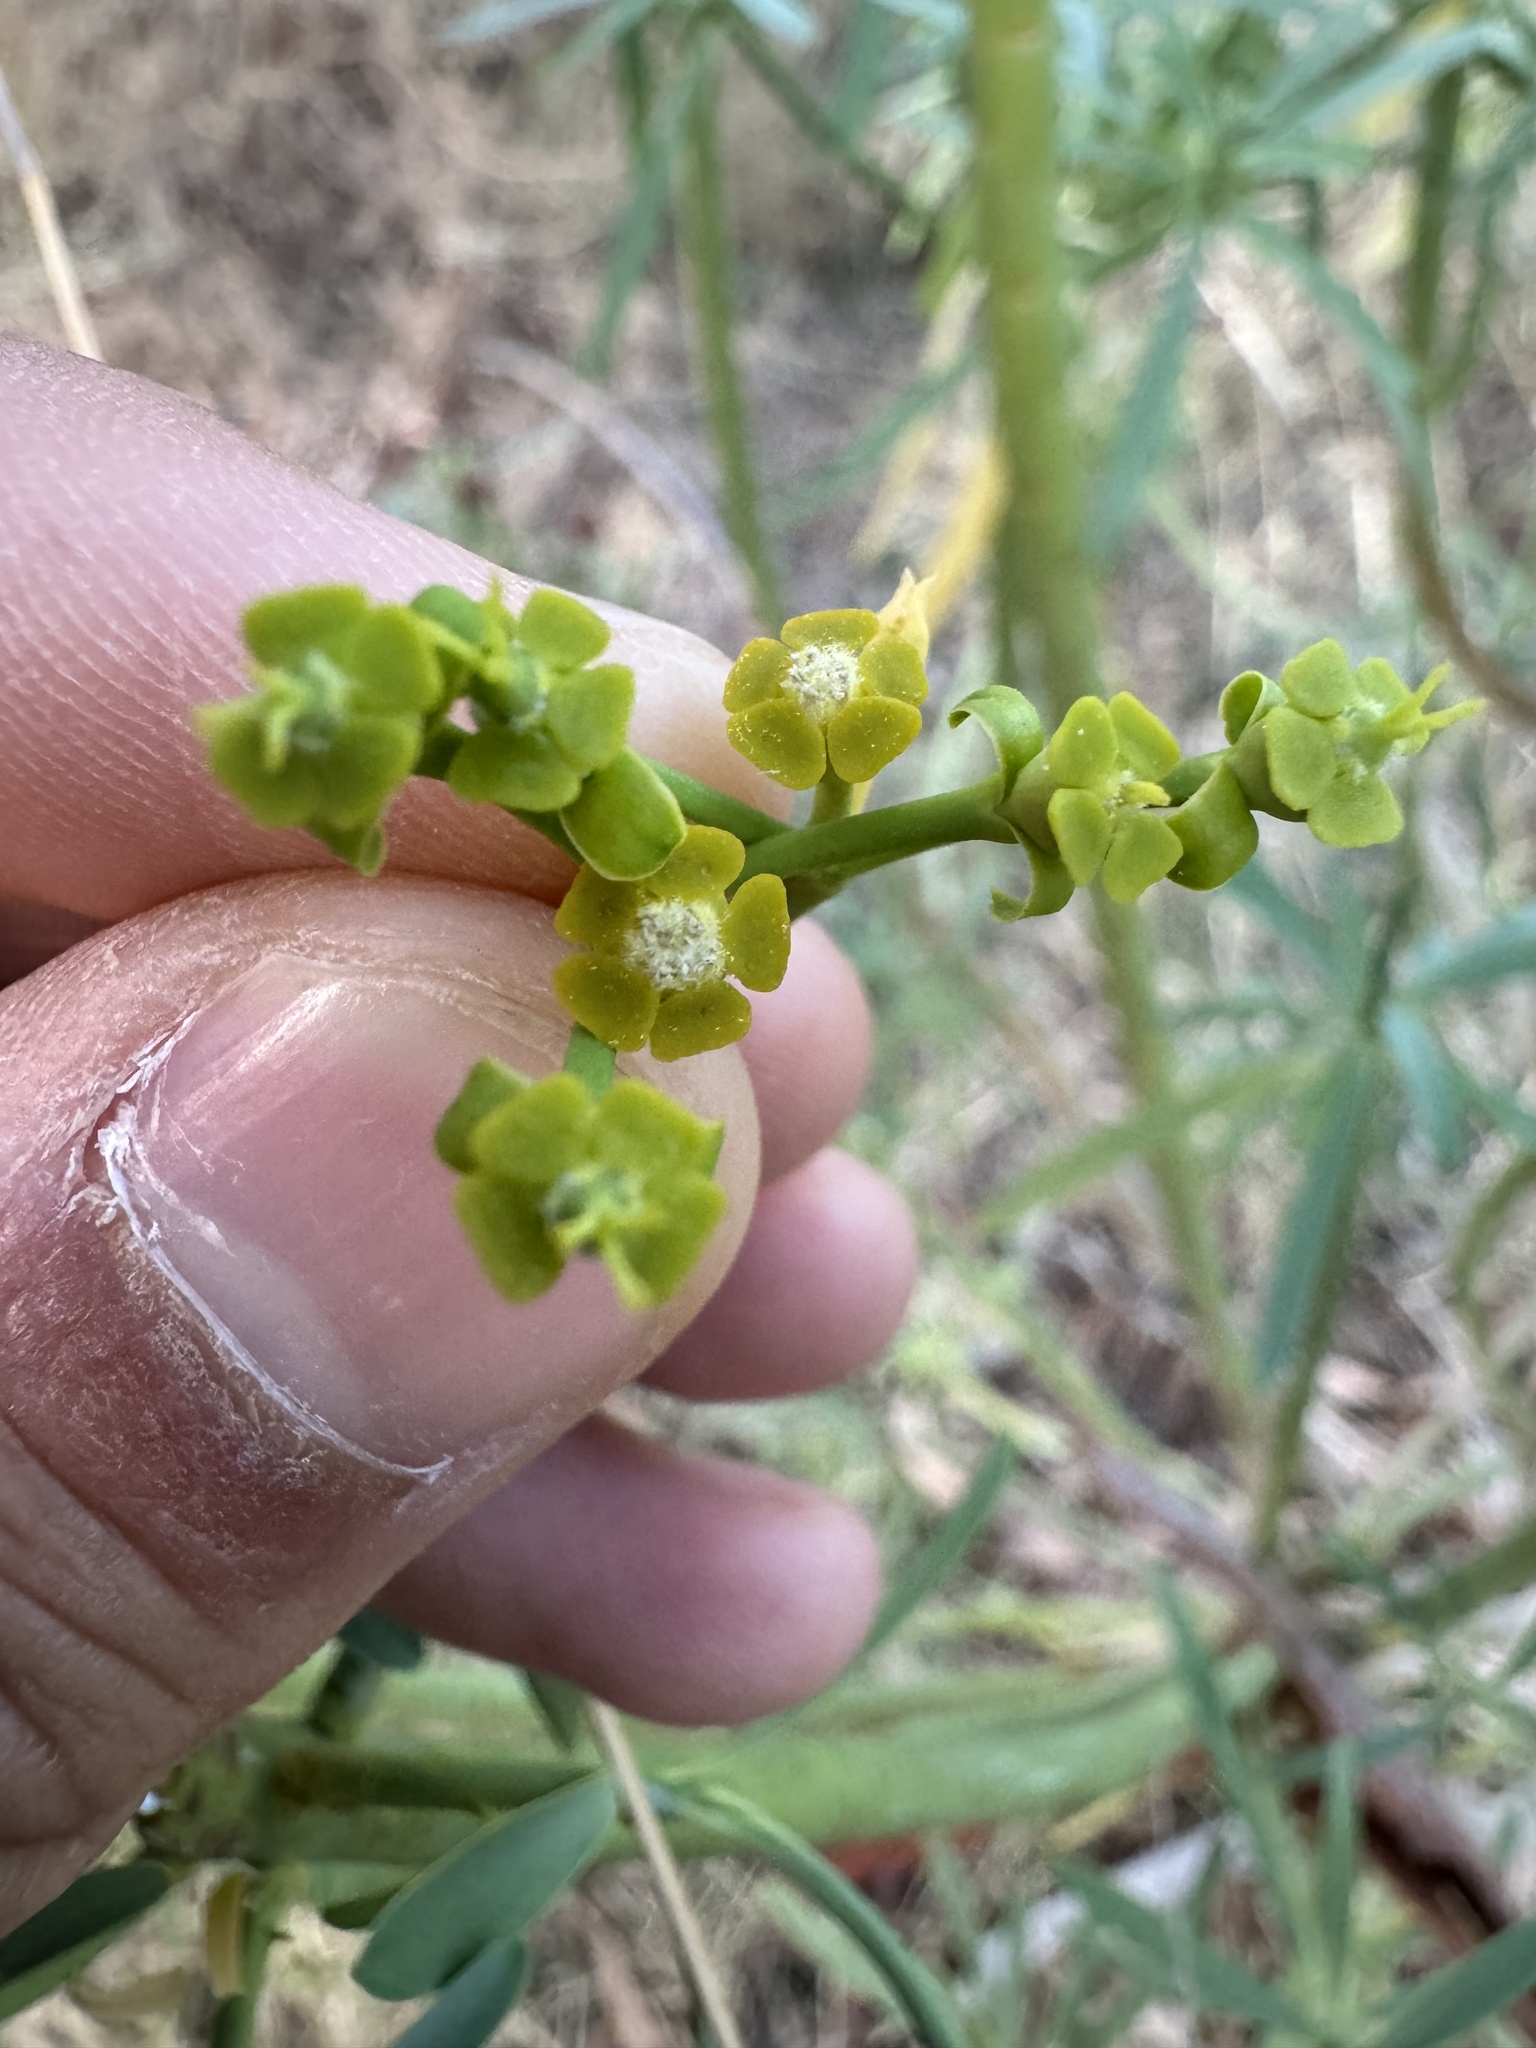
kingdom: Plantae
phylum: Tracheophyta
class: Magnoliopsida
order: Malpighiales
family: Euphorbiaceae
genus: Euphorbia
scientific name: Euphorbia lamarckii
